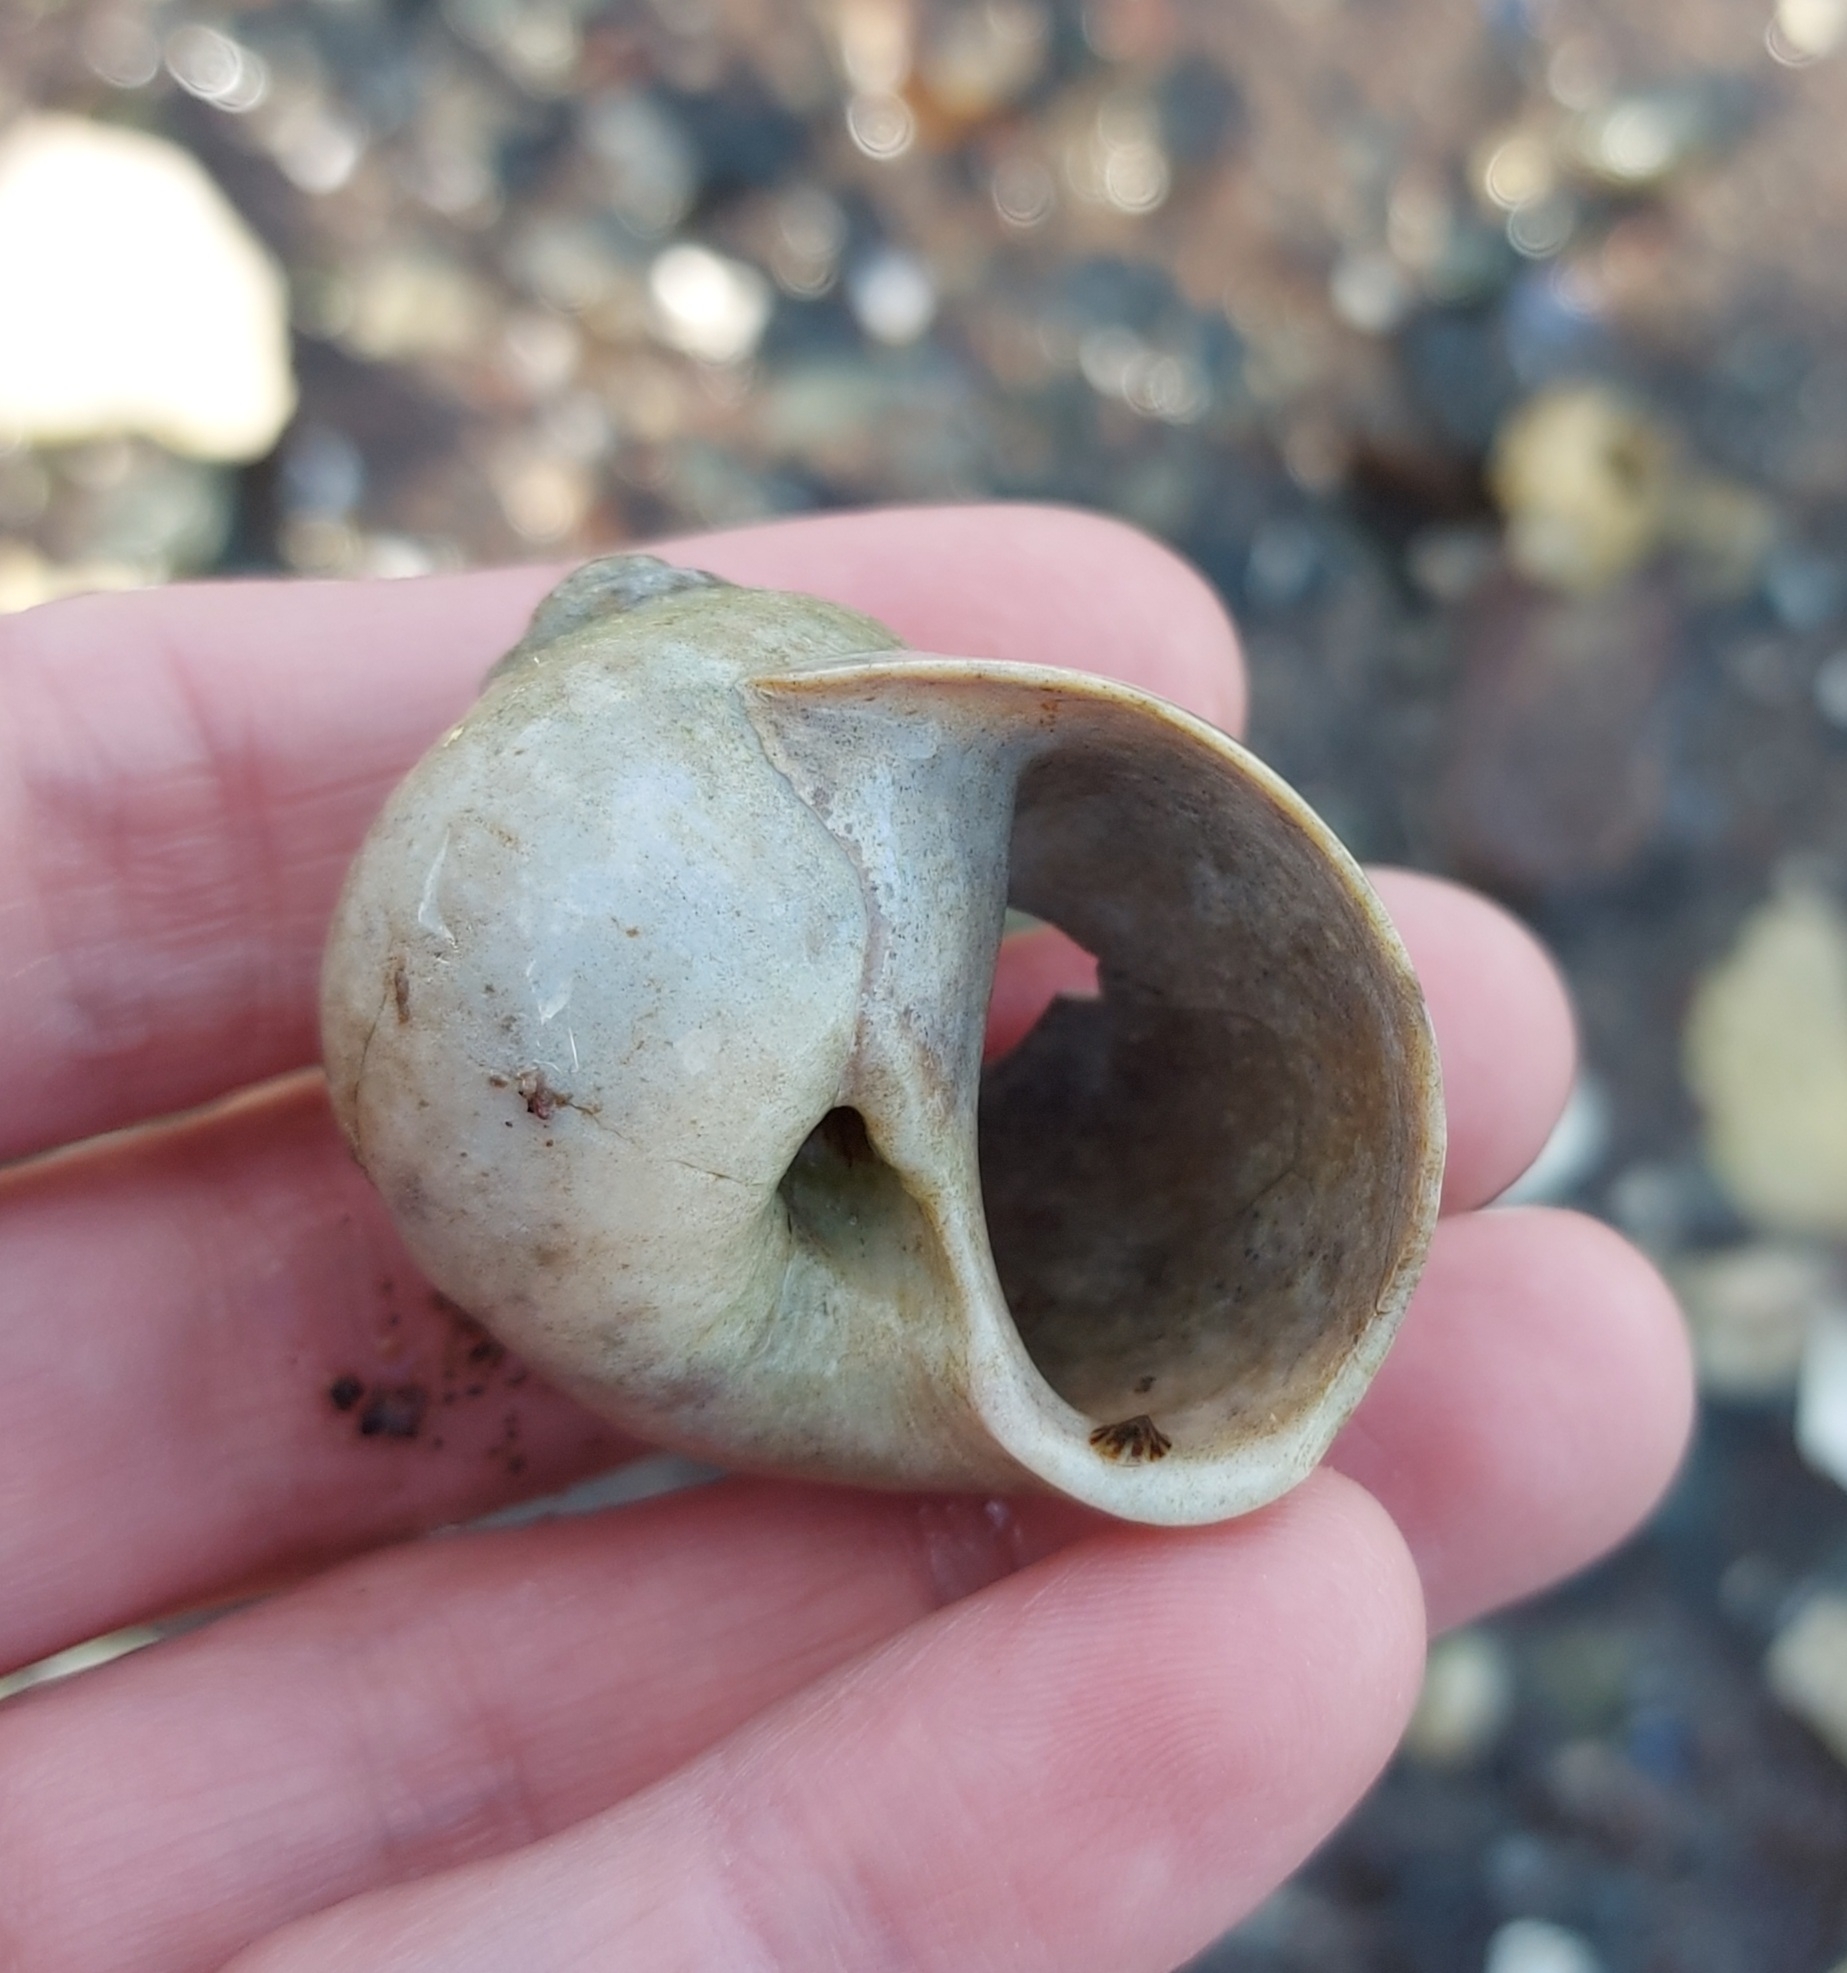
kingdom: Animalia
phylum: Mollusca
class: Gastropoda
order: Littorinimorpha
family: Naticidae
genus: Euspira
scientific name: Euspira heros
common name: Common northern moonsnail
